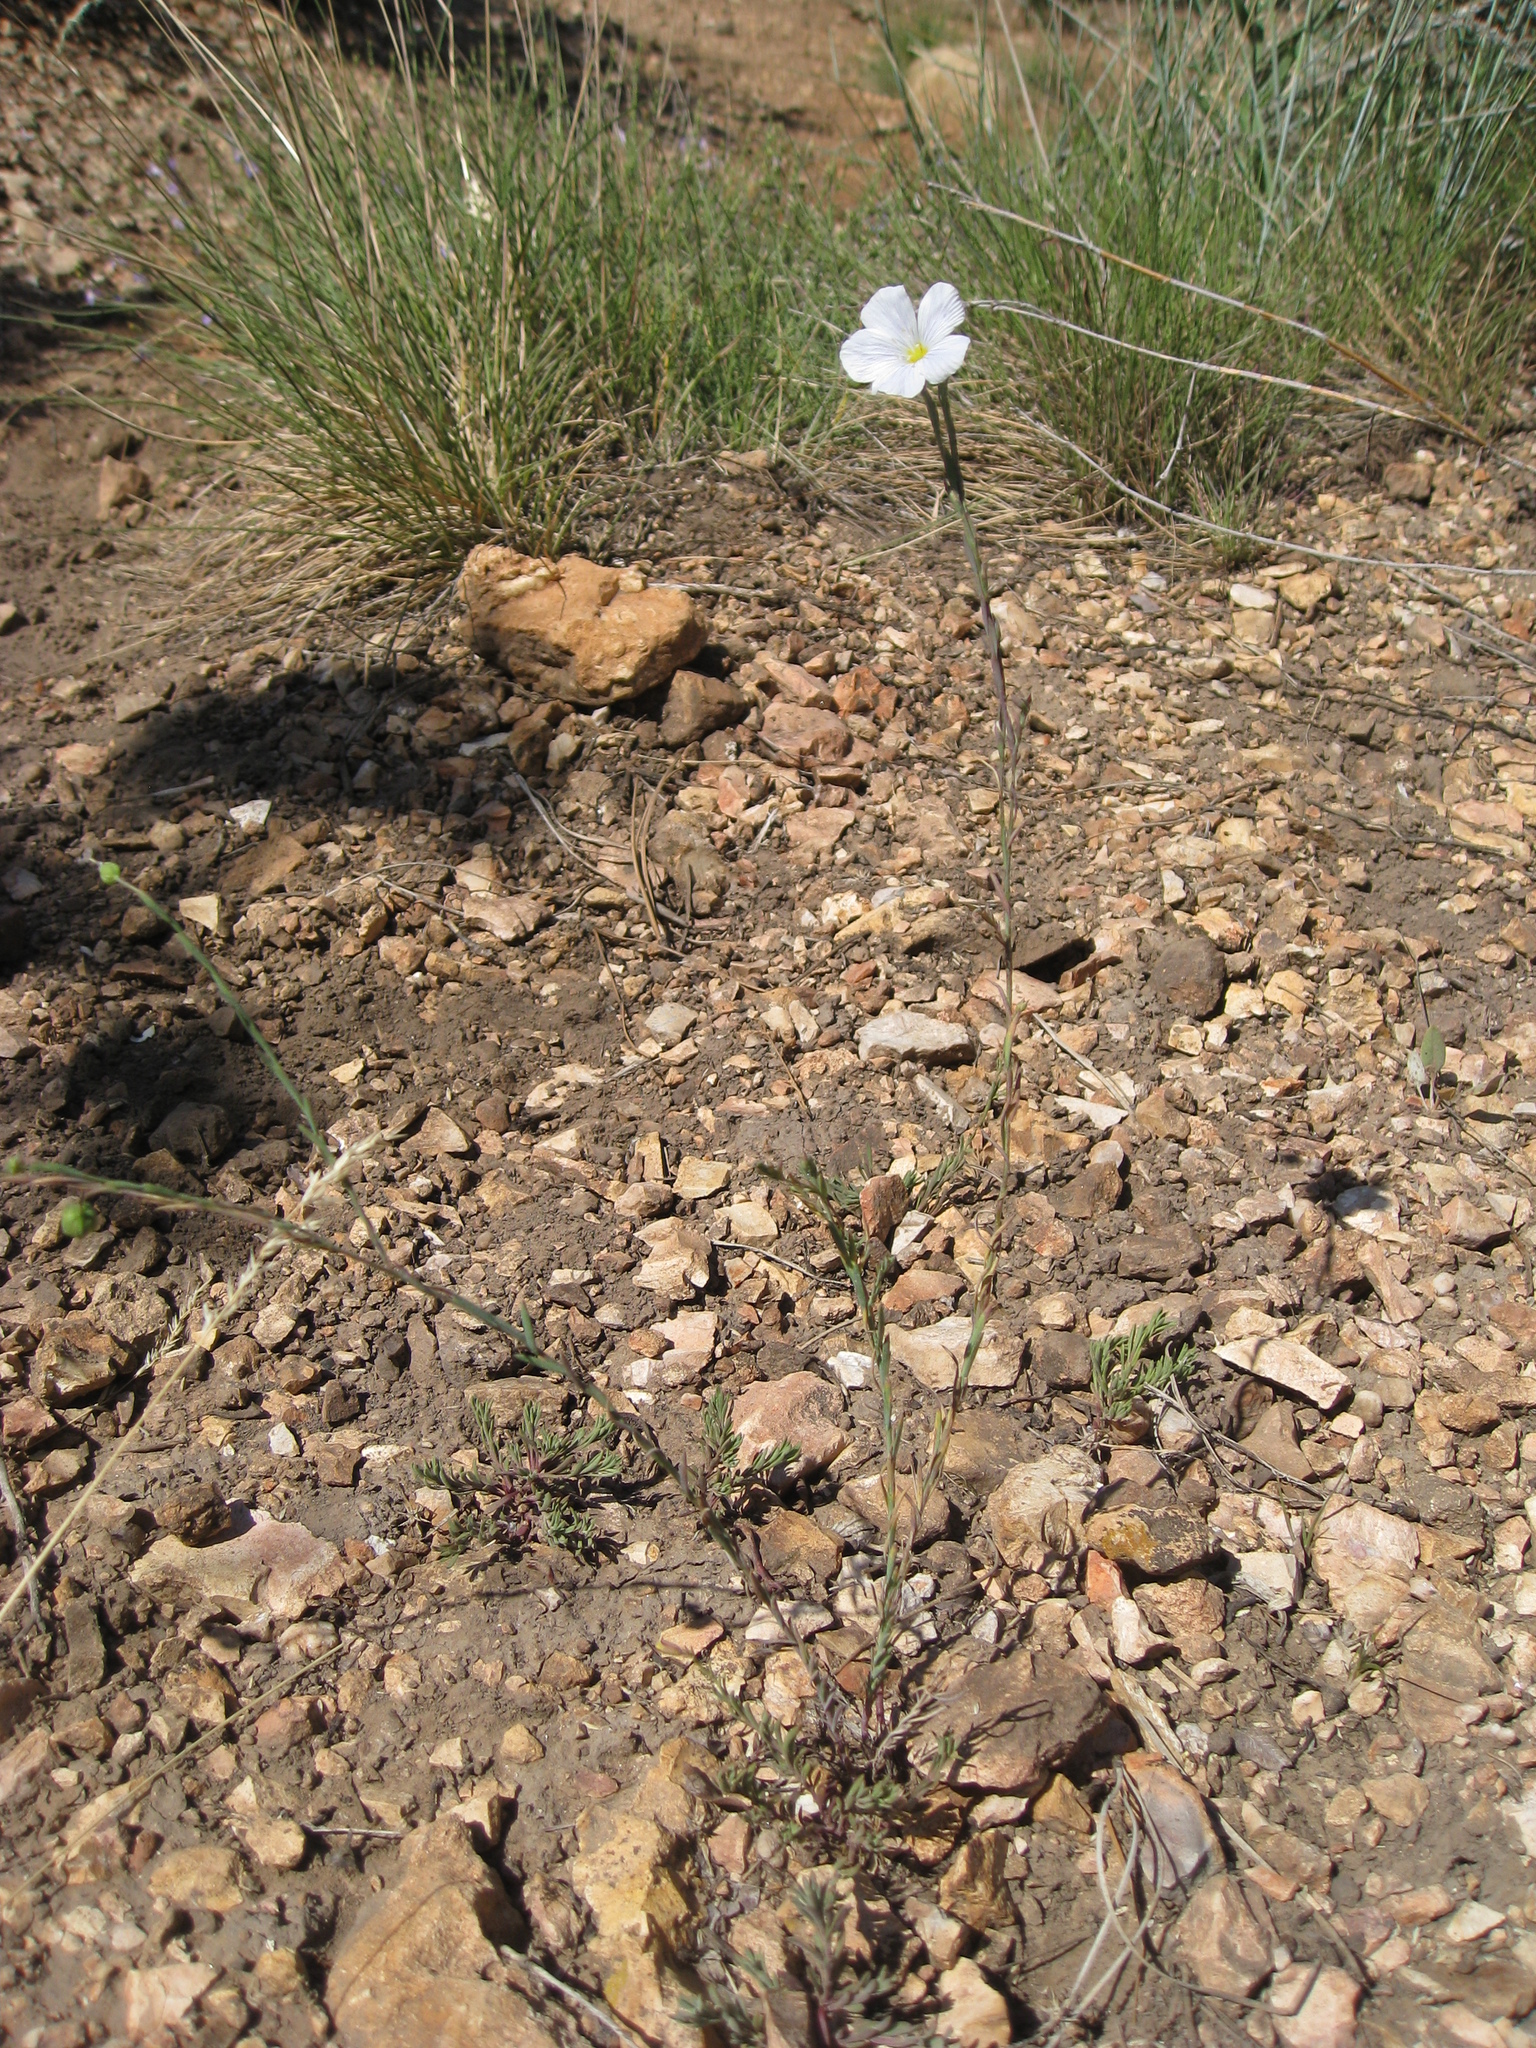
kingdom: Plantae
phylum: Tracheophyta
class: Magnoliopsida
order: Malpighiales
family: Linaceae
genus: Linum
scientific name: Linum lewisii
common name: Prairie flax
